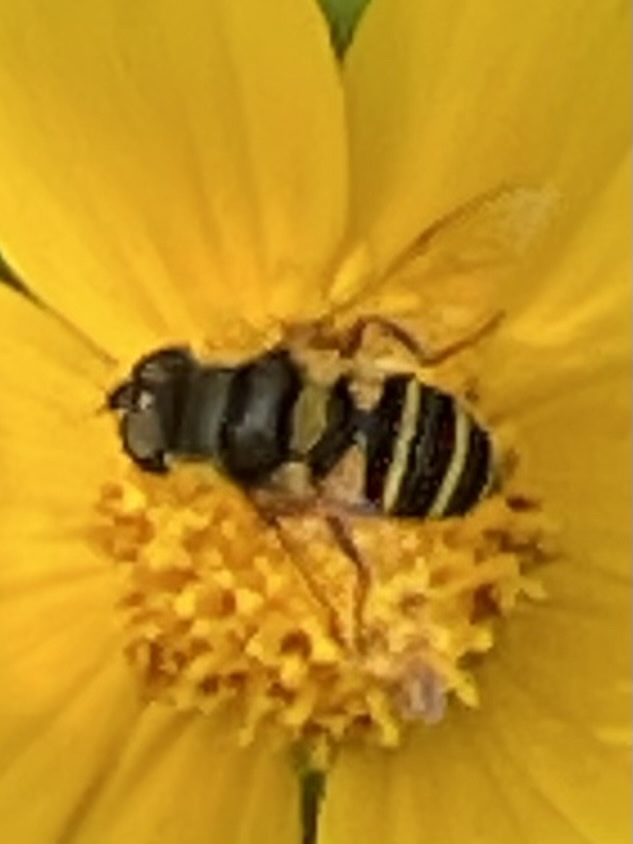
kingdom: Animalia
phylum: Arthropoda
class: Insecta
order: Diptera
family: Syrphidae
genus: Eristalis
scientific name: Eristalis transversa
